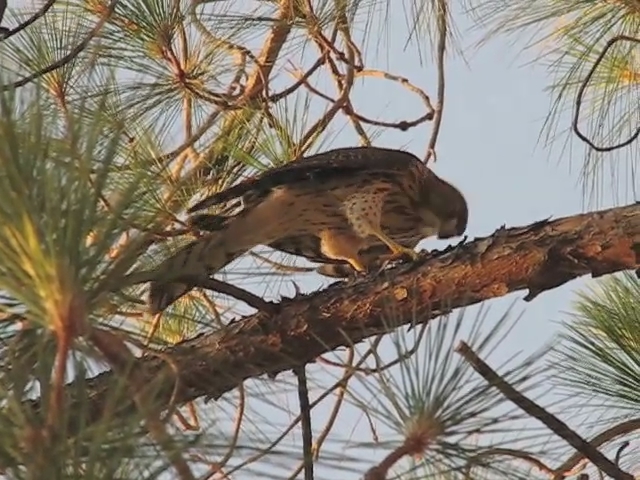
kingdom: Animalia
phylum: Chordata
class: Aves
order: Accipitriformes
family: Accipitridae
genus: Accipiter
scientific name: Accipiter cooperii
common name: Cooper's hawk
